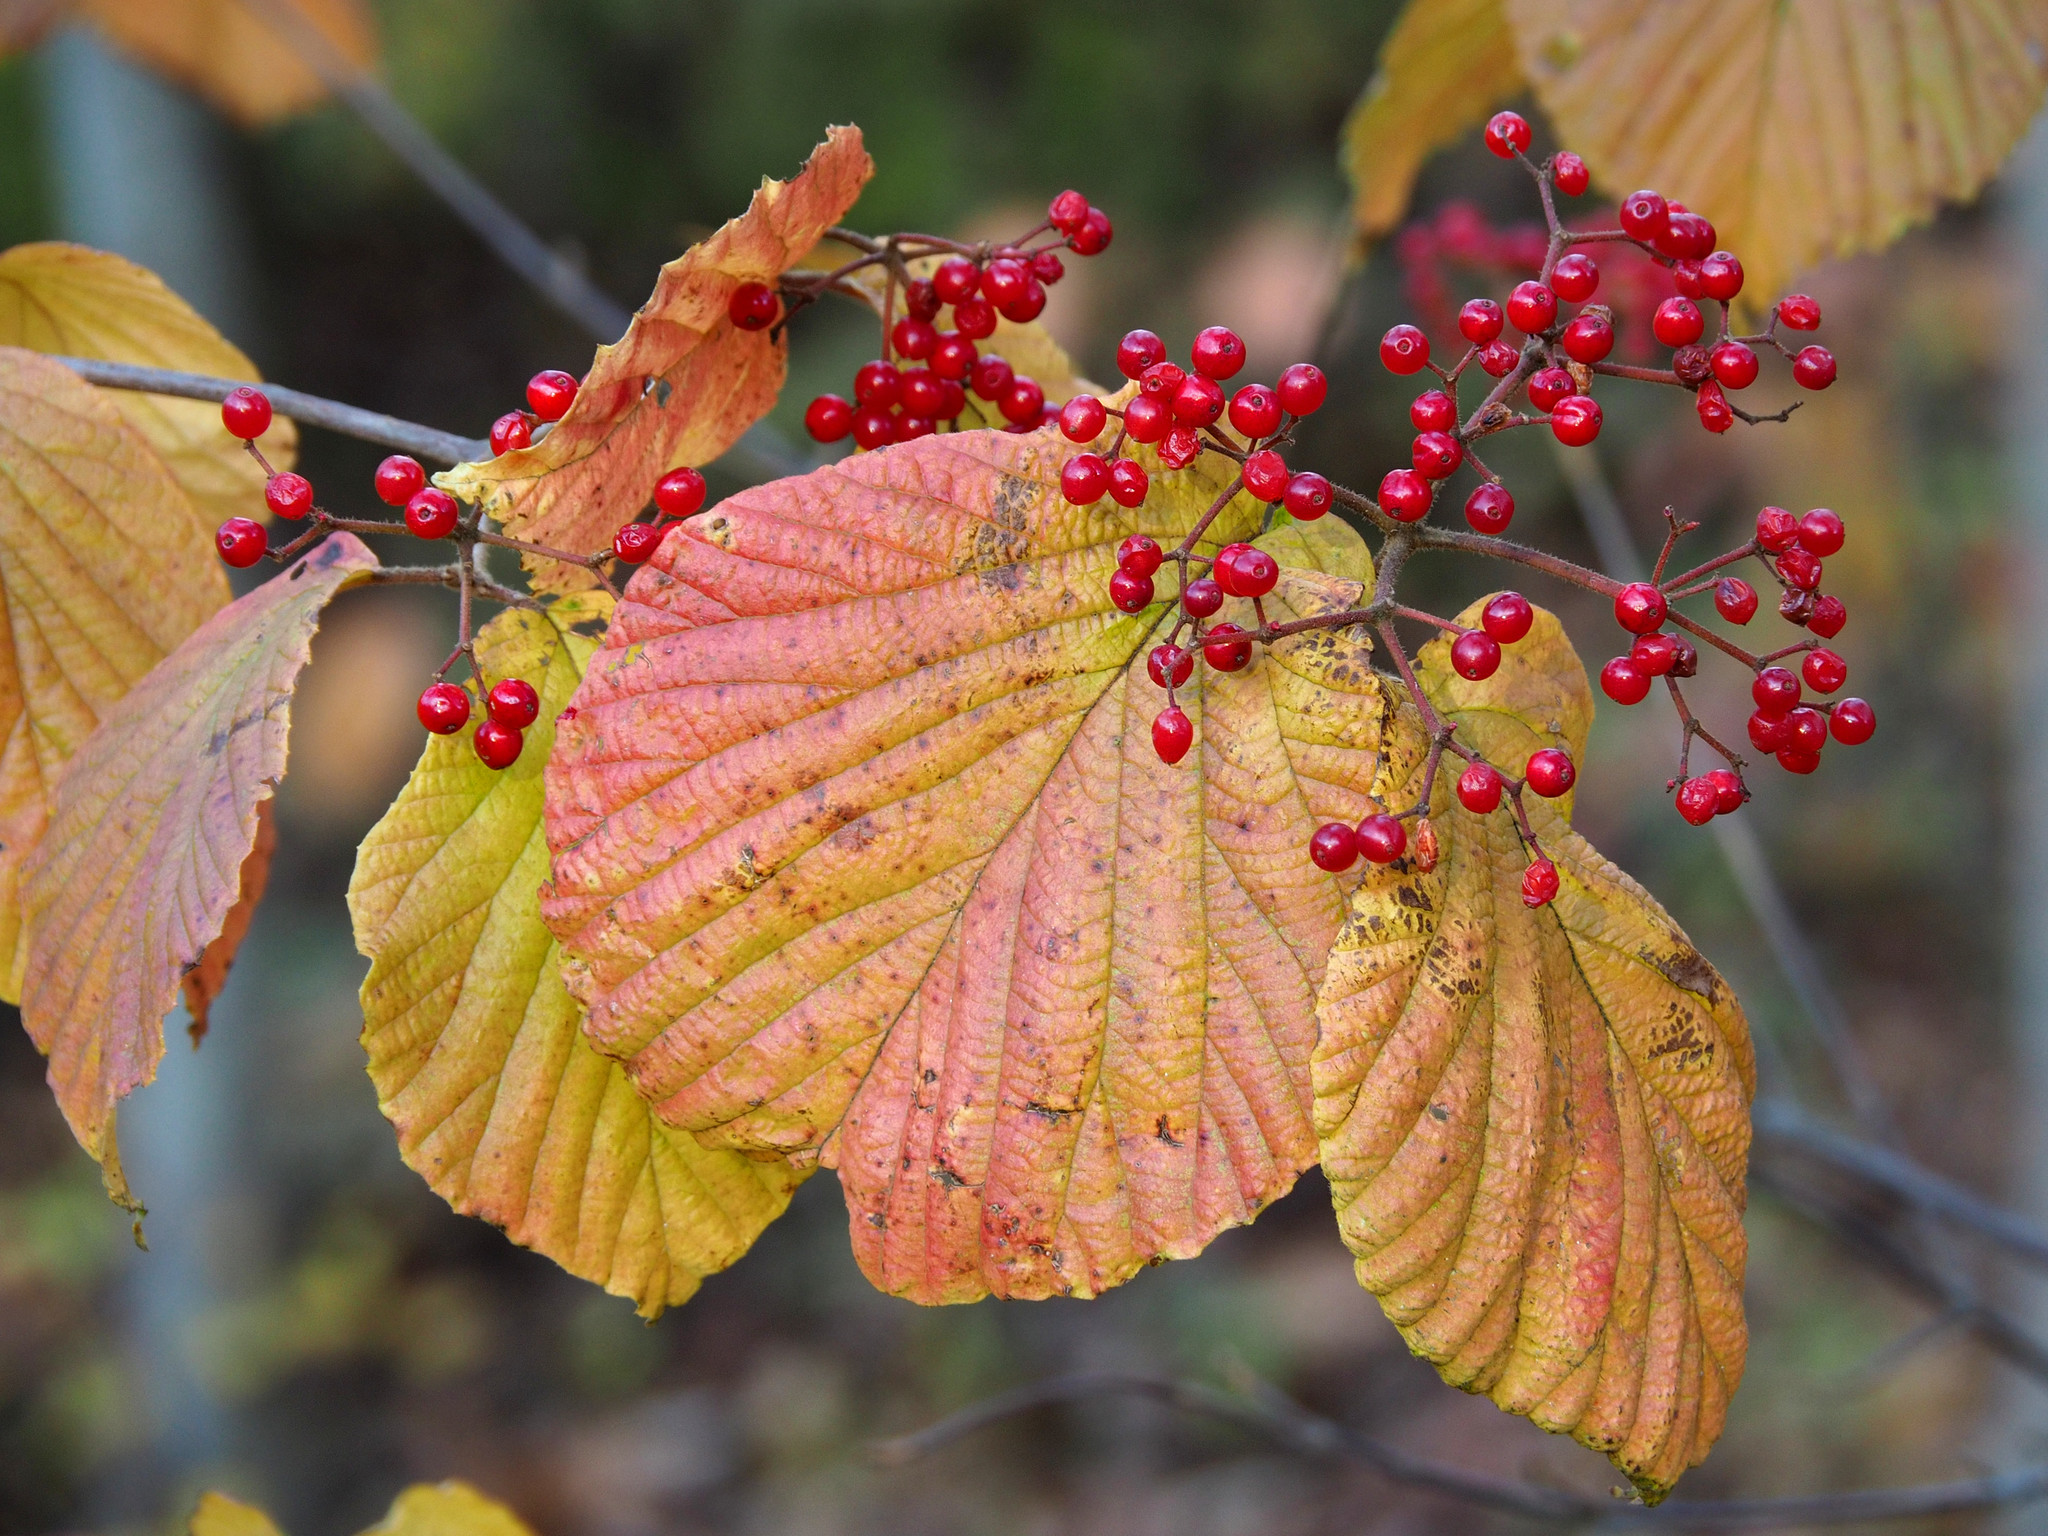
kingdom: Plantae
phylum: Tracheophyta
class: Magnoliopsida
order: Dipsacales
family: Viburnaceae
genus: Viburnum
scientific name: Viburnum dilatatum
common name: Linden arrowwood
